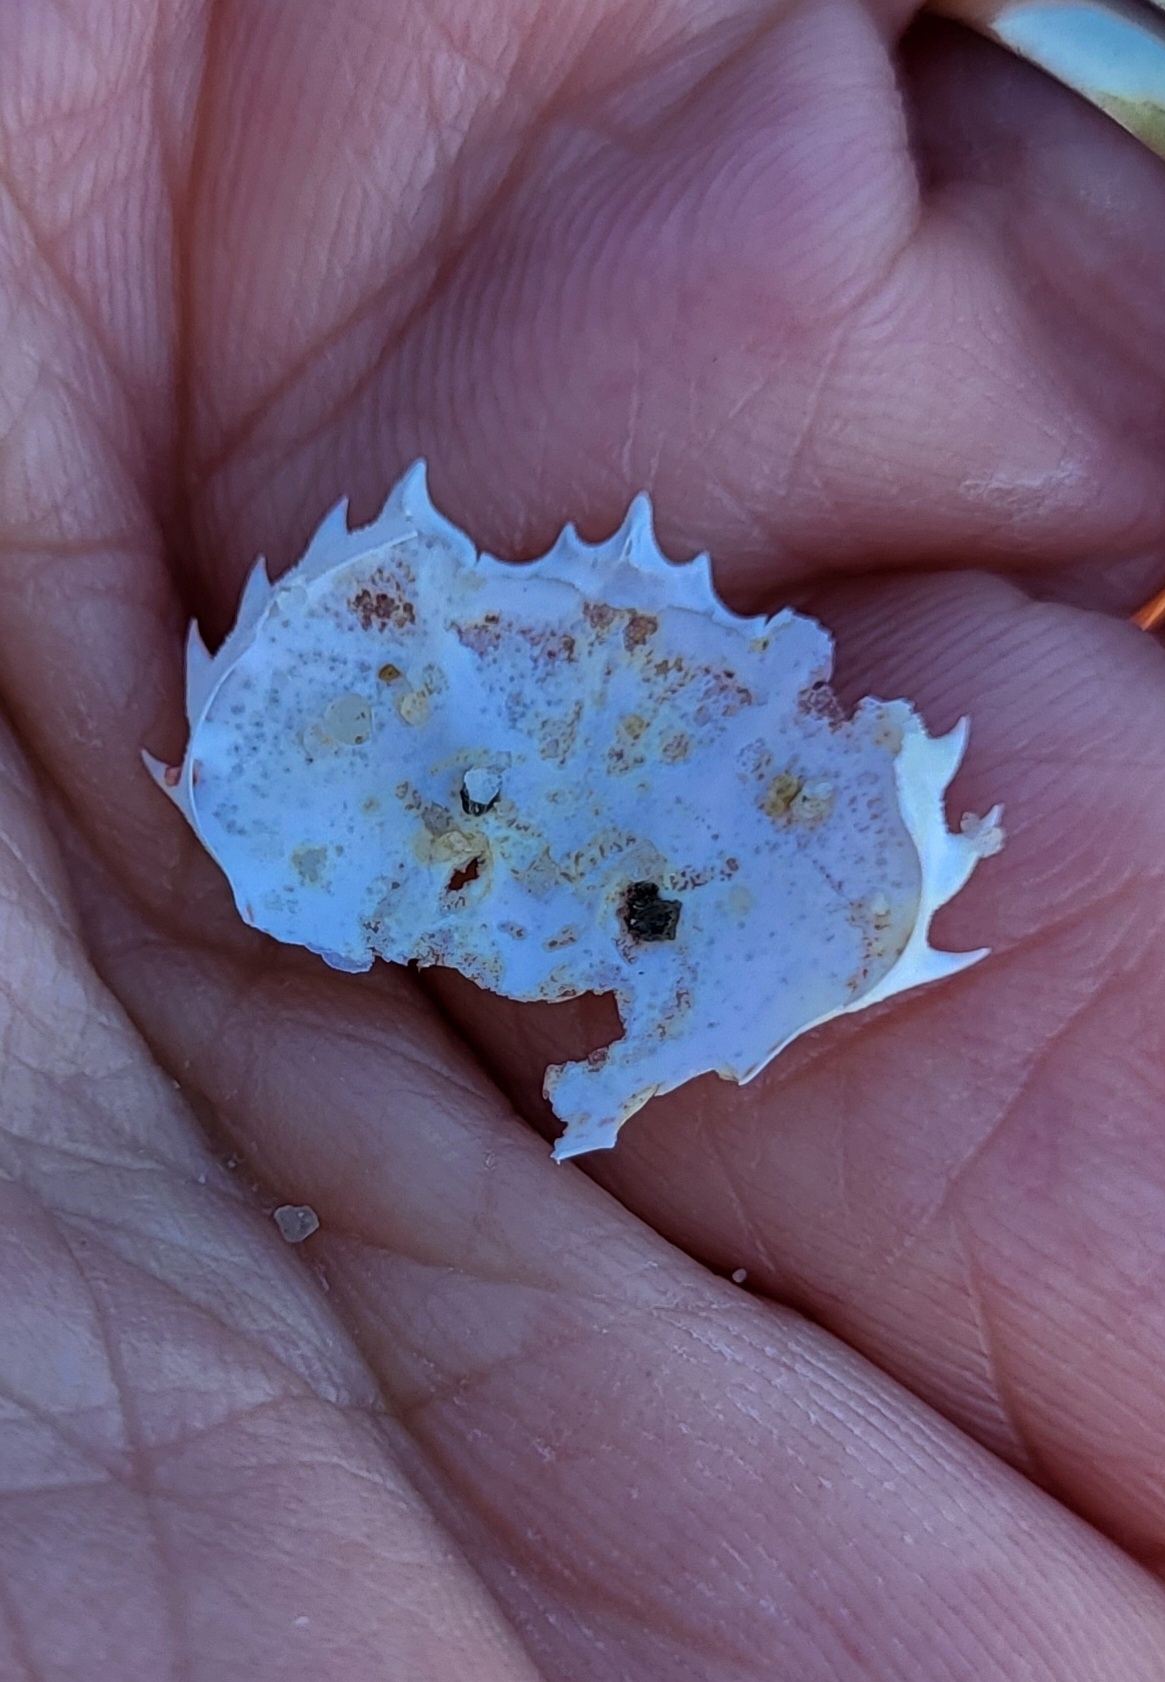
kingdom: Animalia
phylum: Arthropoda
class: Malacostraca
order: Decapoda
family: Ovalipidae
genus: Ovalipes
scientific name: Ovalipes ocellatus
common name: Lady crab
